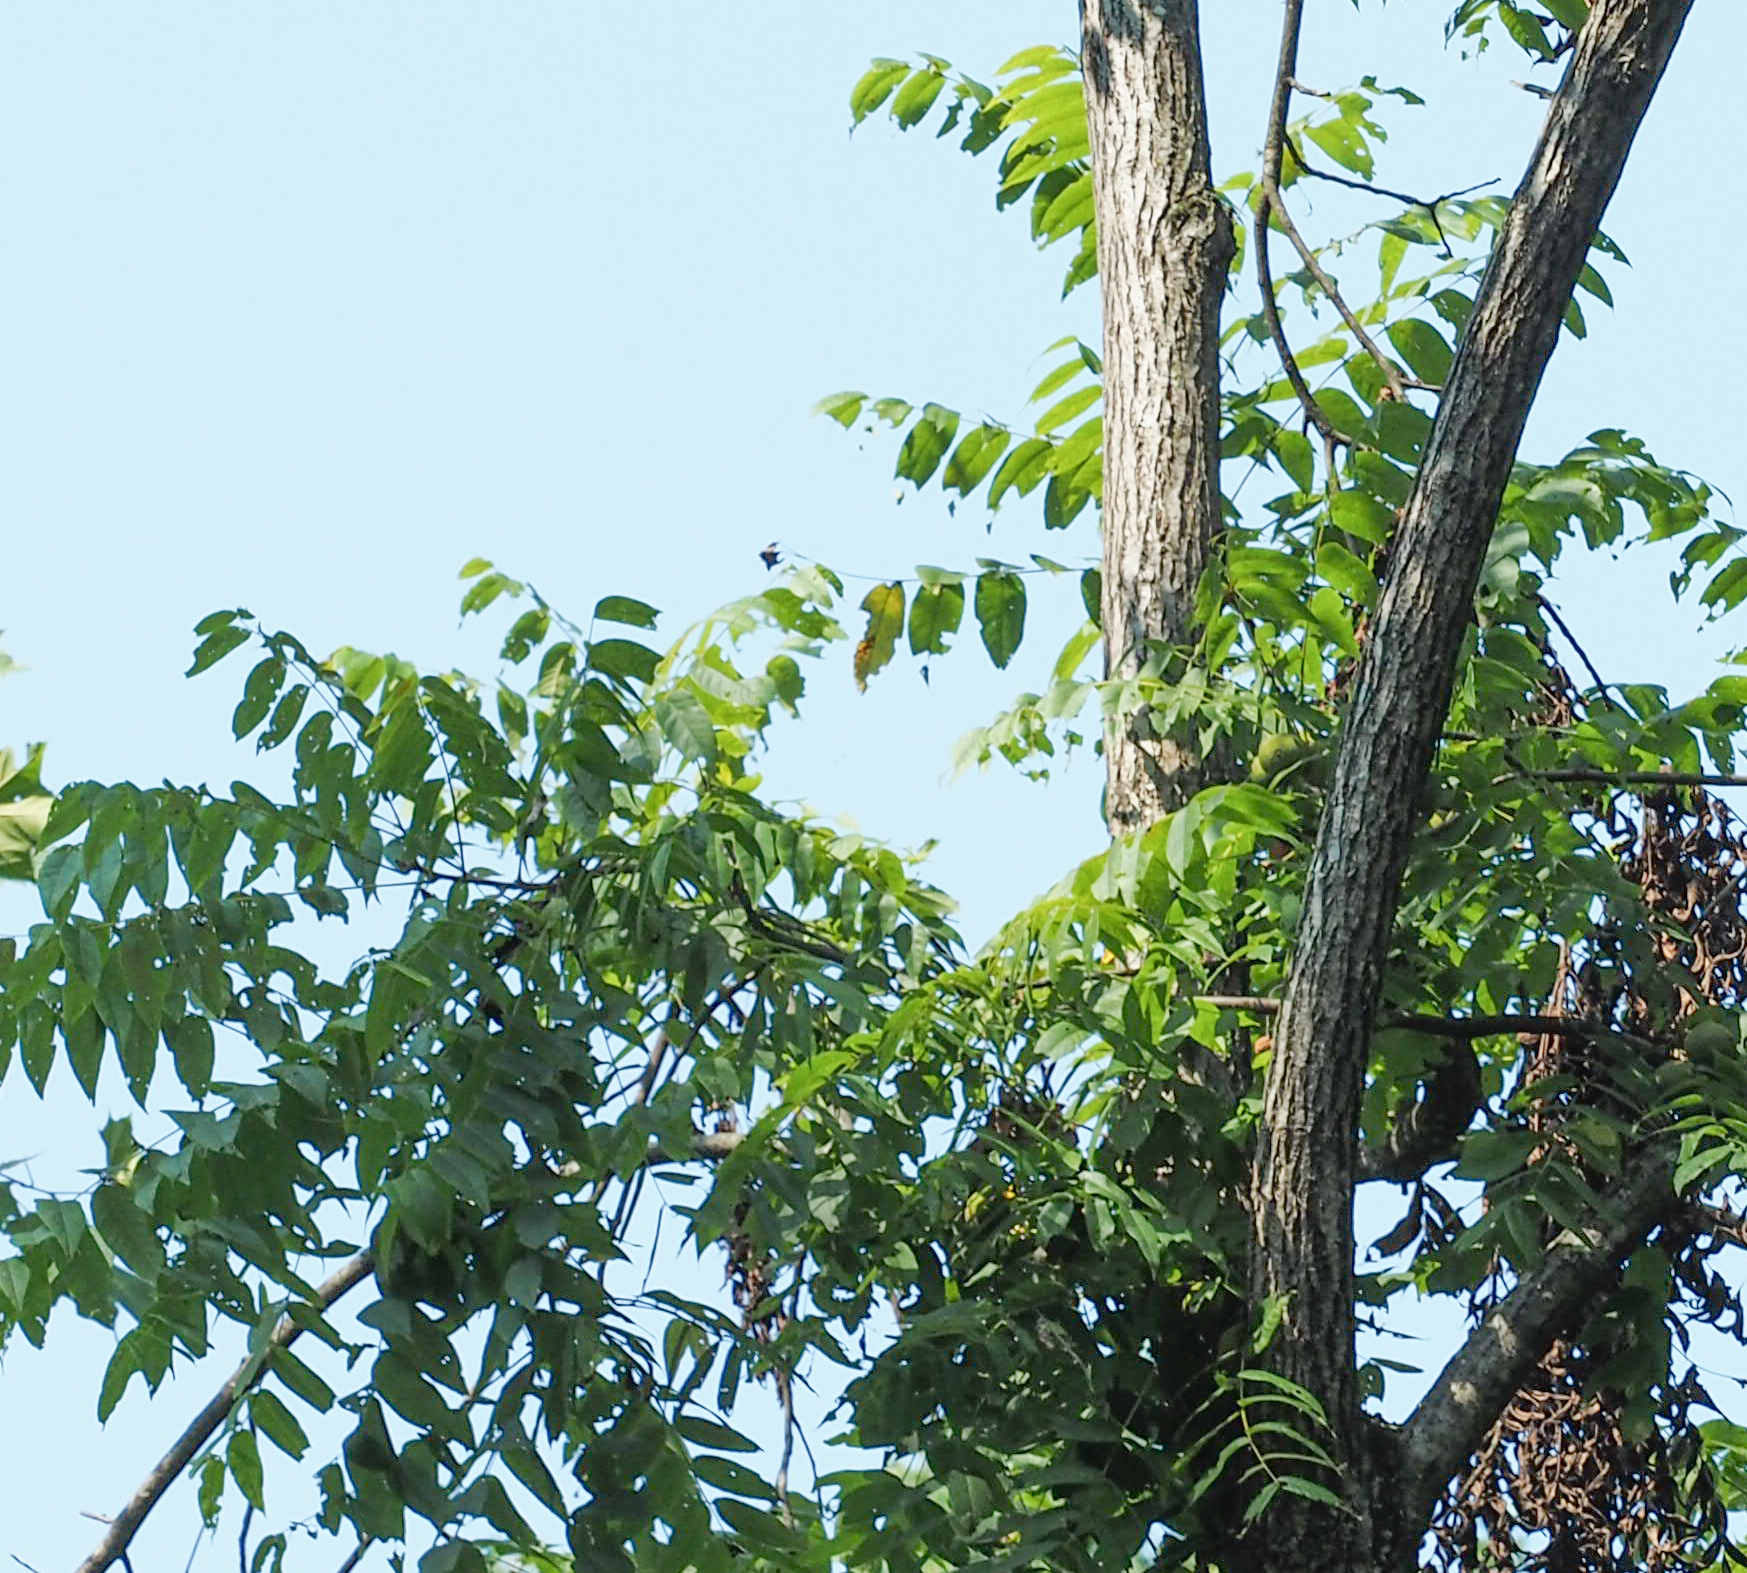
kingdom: Plantae
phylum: Tracheophyta
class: Magnoliopsida
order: Fagales
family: Juglandaceae
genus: Juglans
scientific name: Juglans nigra
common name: Black walnut
